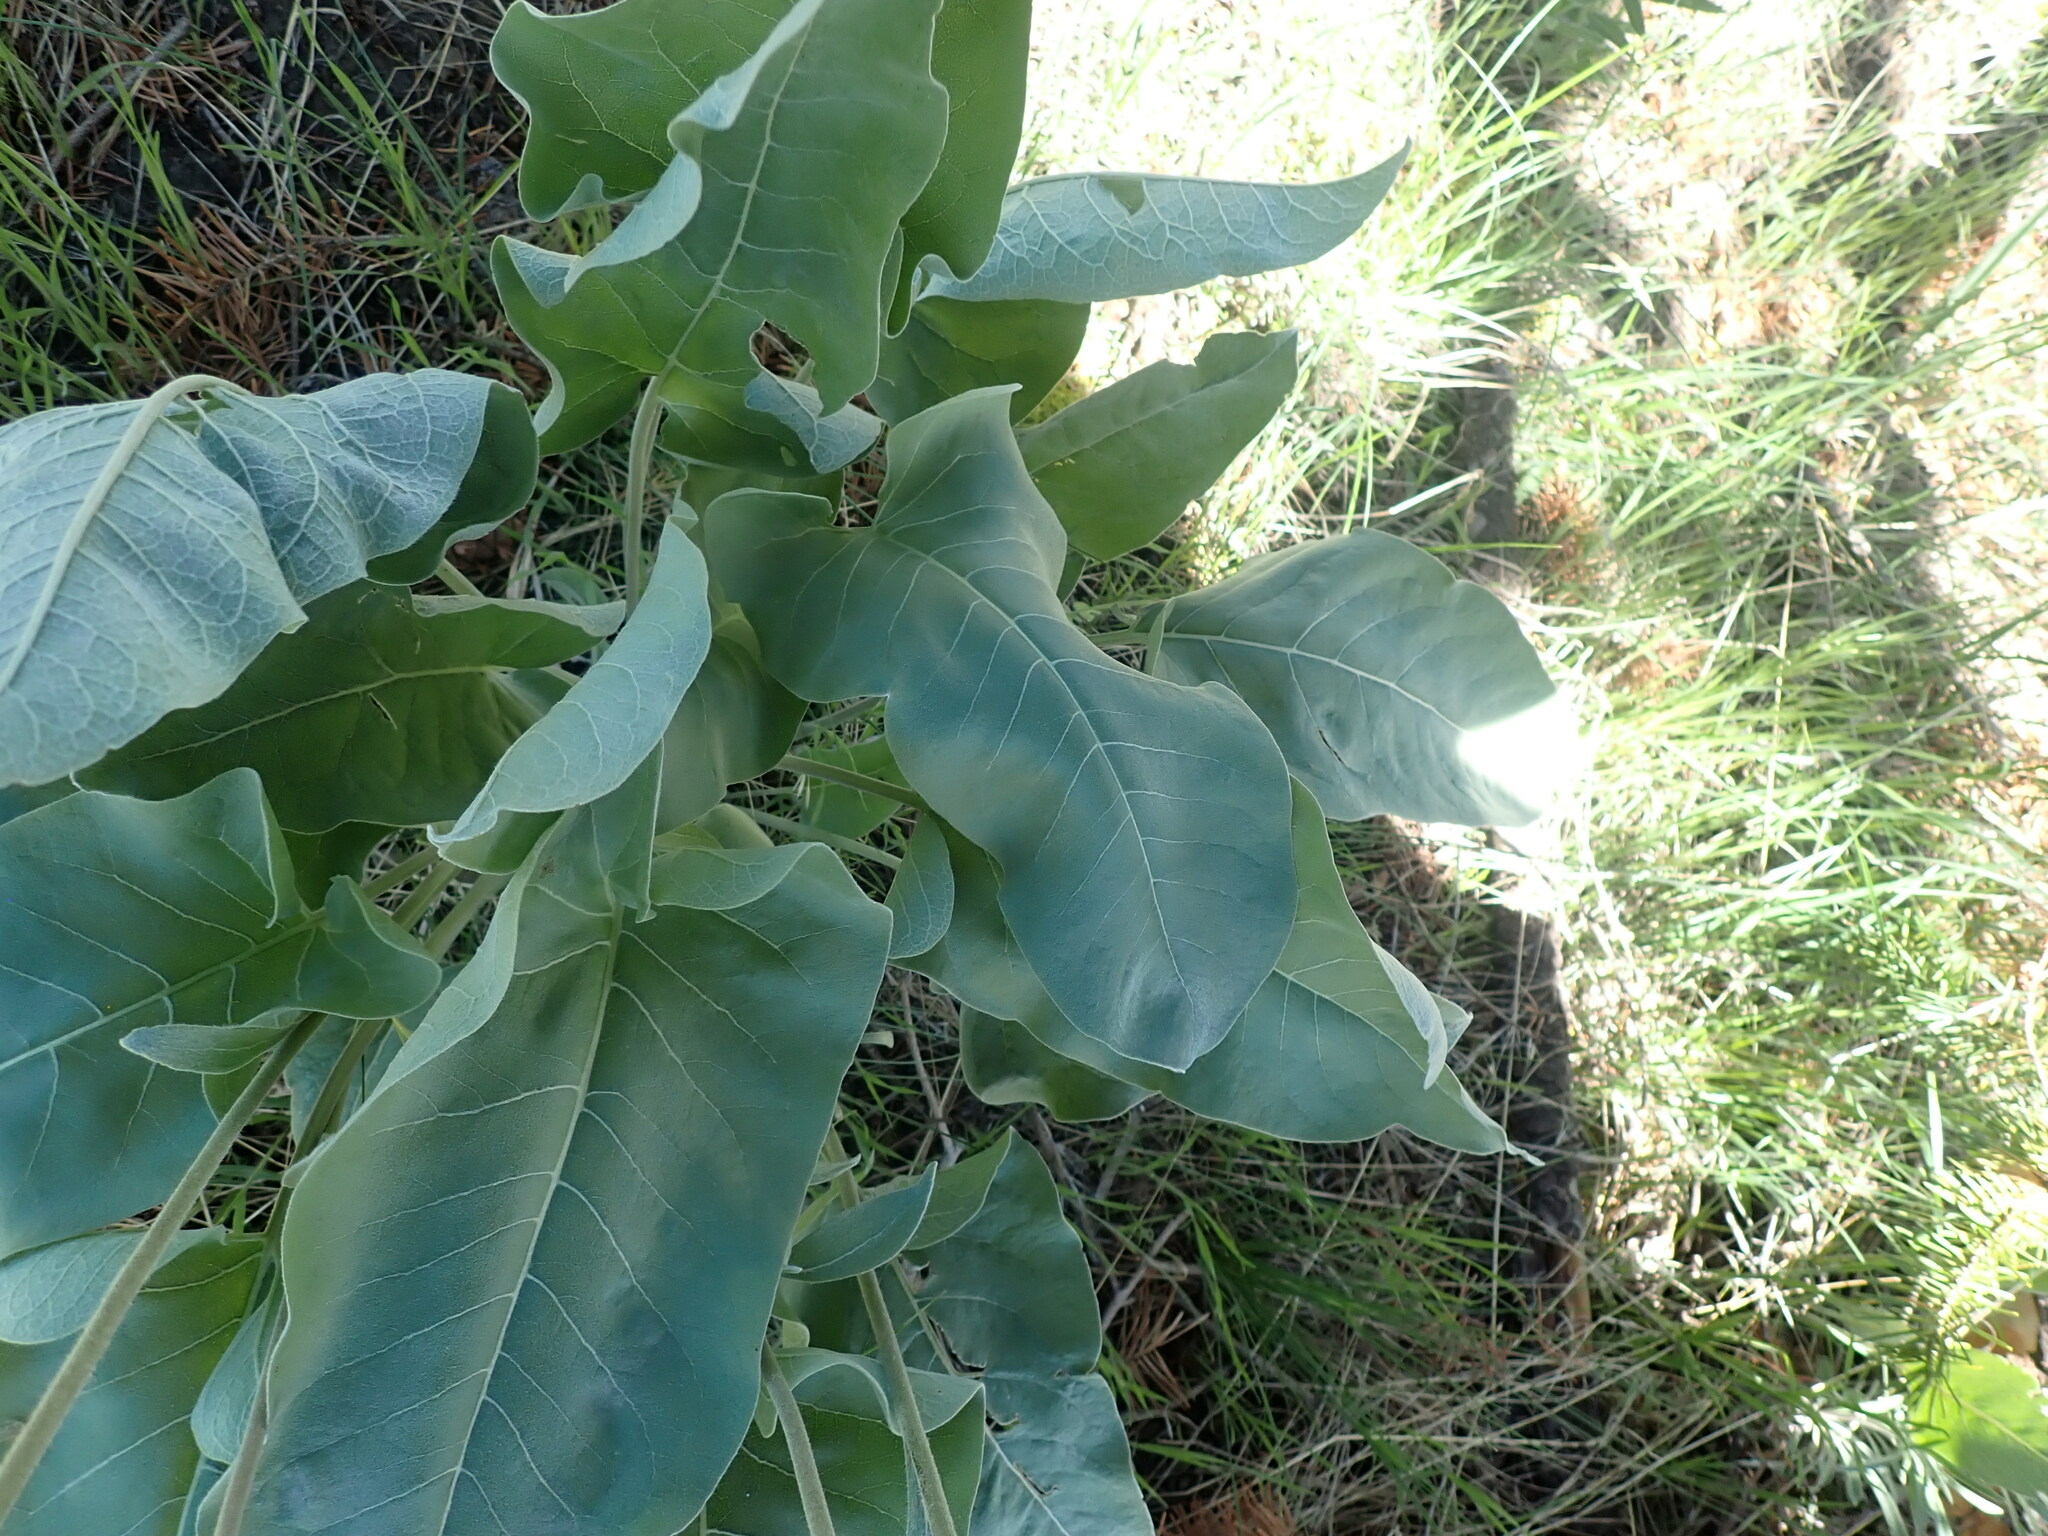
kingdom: Plantae
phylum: Tracheophyta
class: Magnoliopsida
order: Asterales
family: Asteraceae
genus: Wyethia
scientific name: Wyethia sagittata
